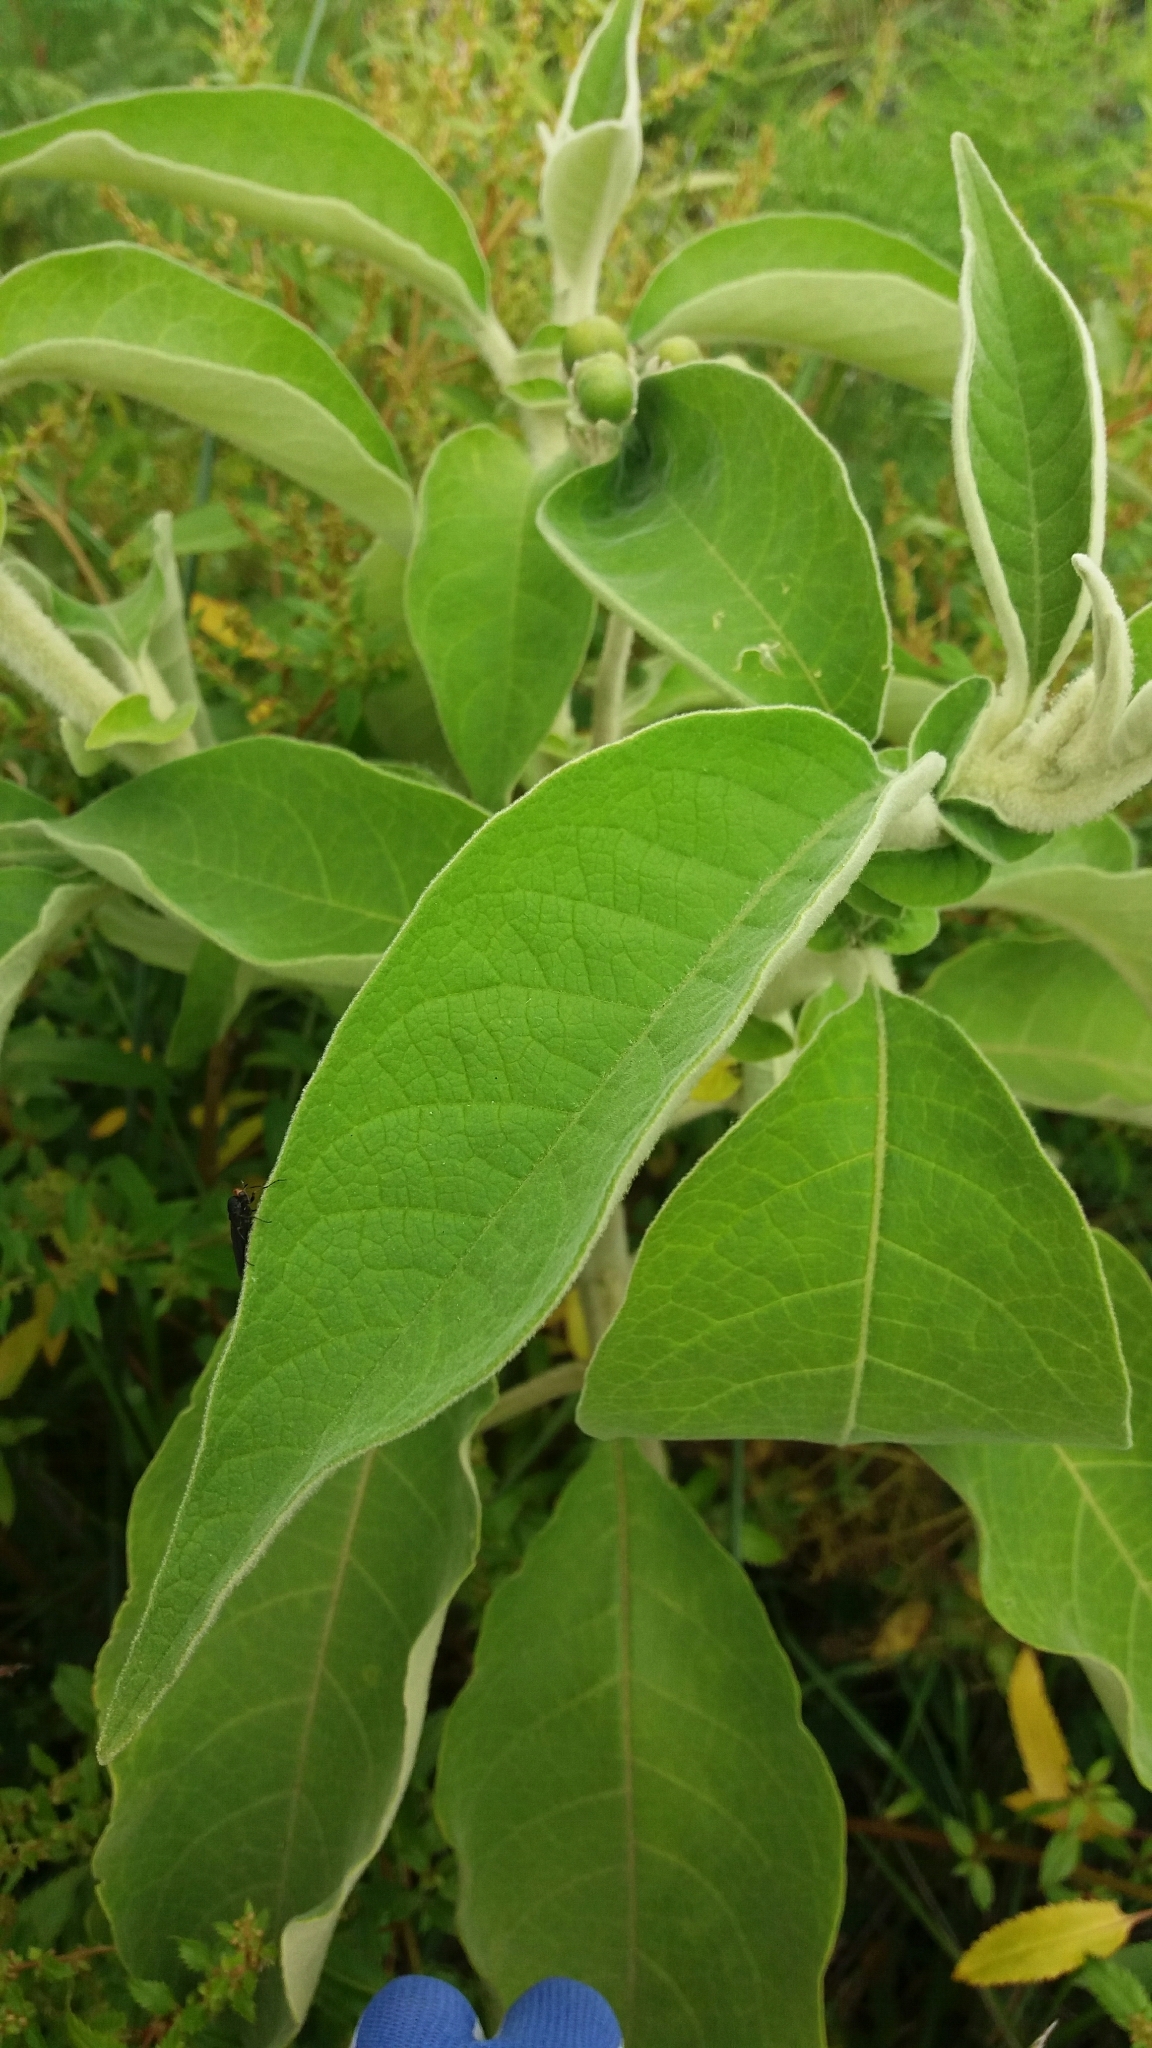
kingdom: Plantae
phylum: Tracheophyta
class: Magnoliopsida
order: Solanales
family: Solanaceae
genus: Solanum
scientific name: Solanum mauritianum
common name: Earleaf nightshade
